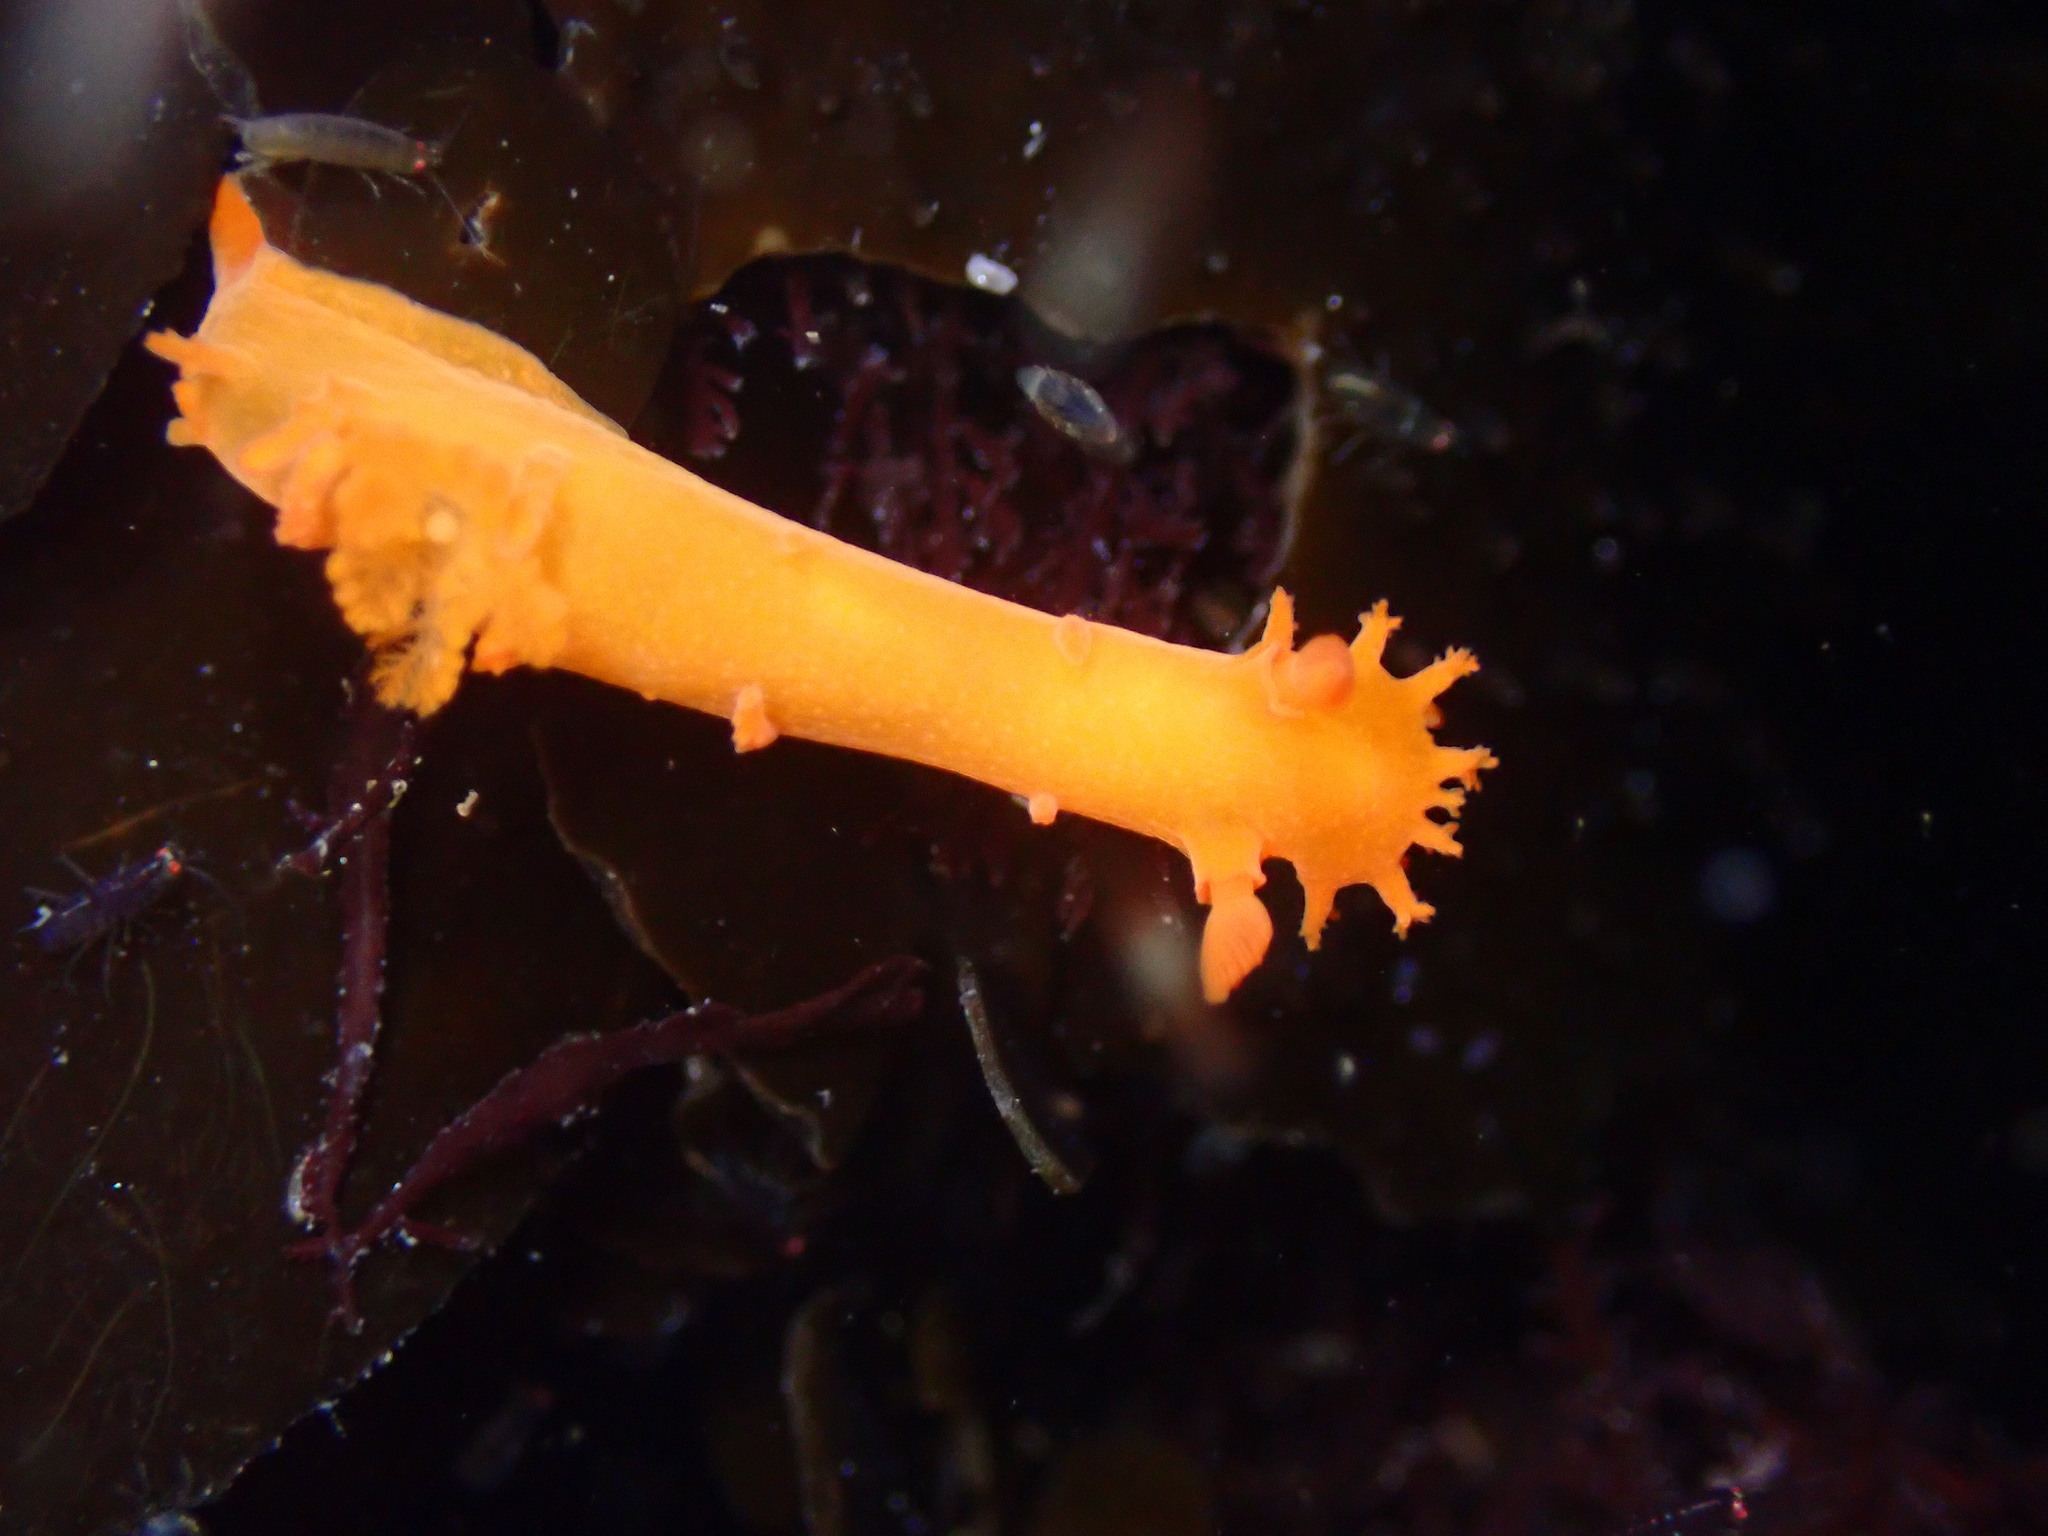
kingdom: Animalia
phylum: Mollusca
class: Gastropoda
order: Nudibranchia
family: Polyceridae
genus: Triopha
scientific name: Triopha maculata
